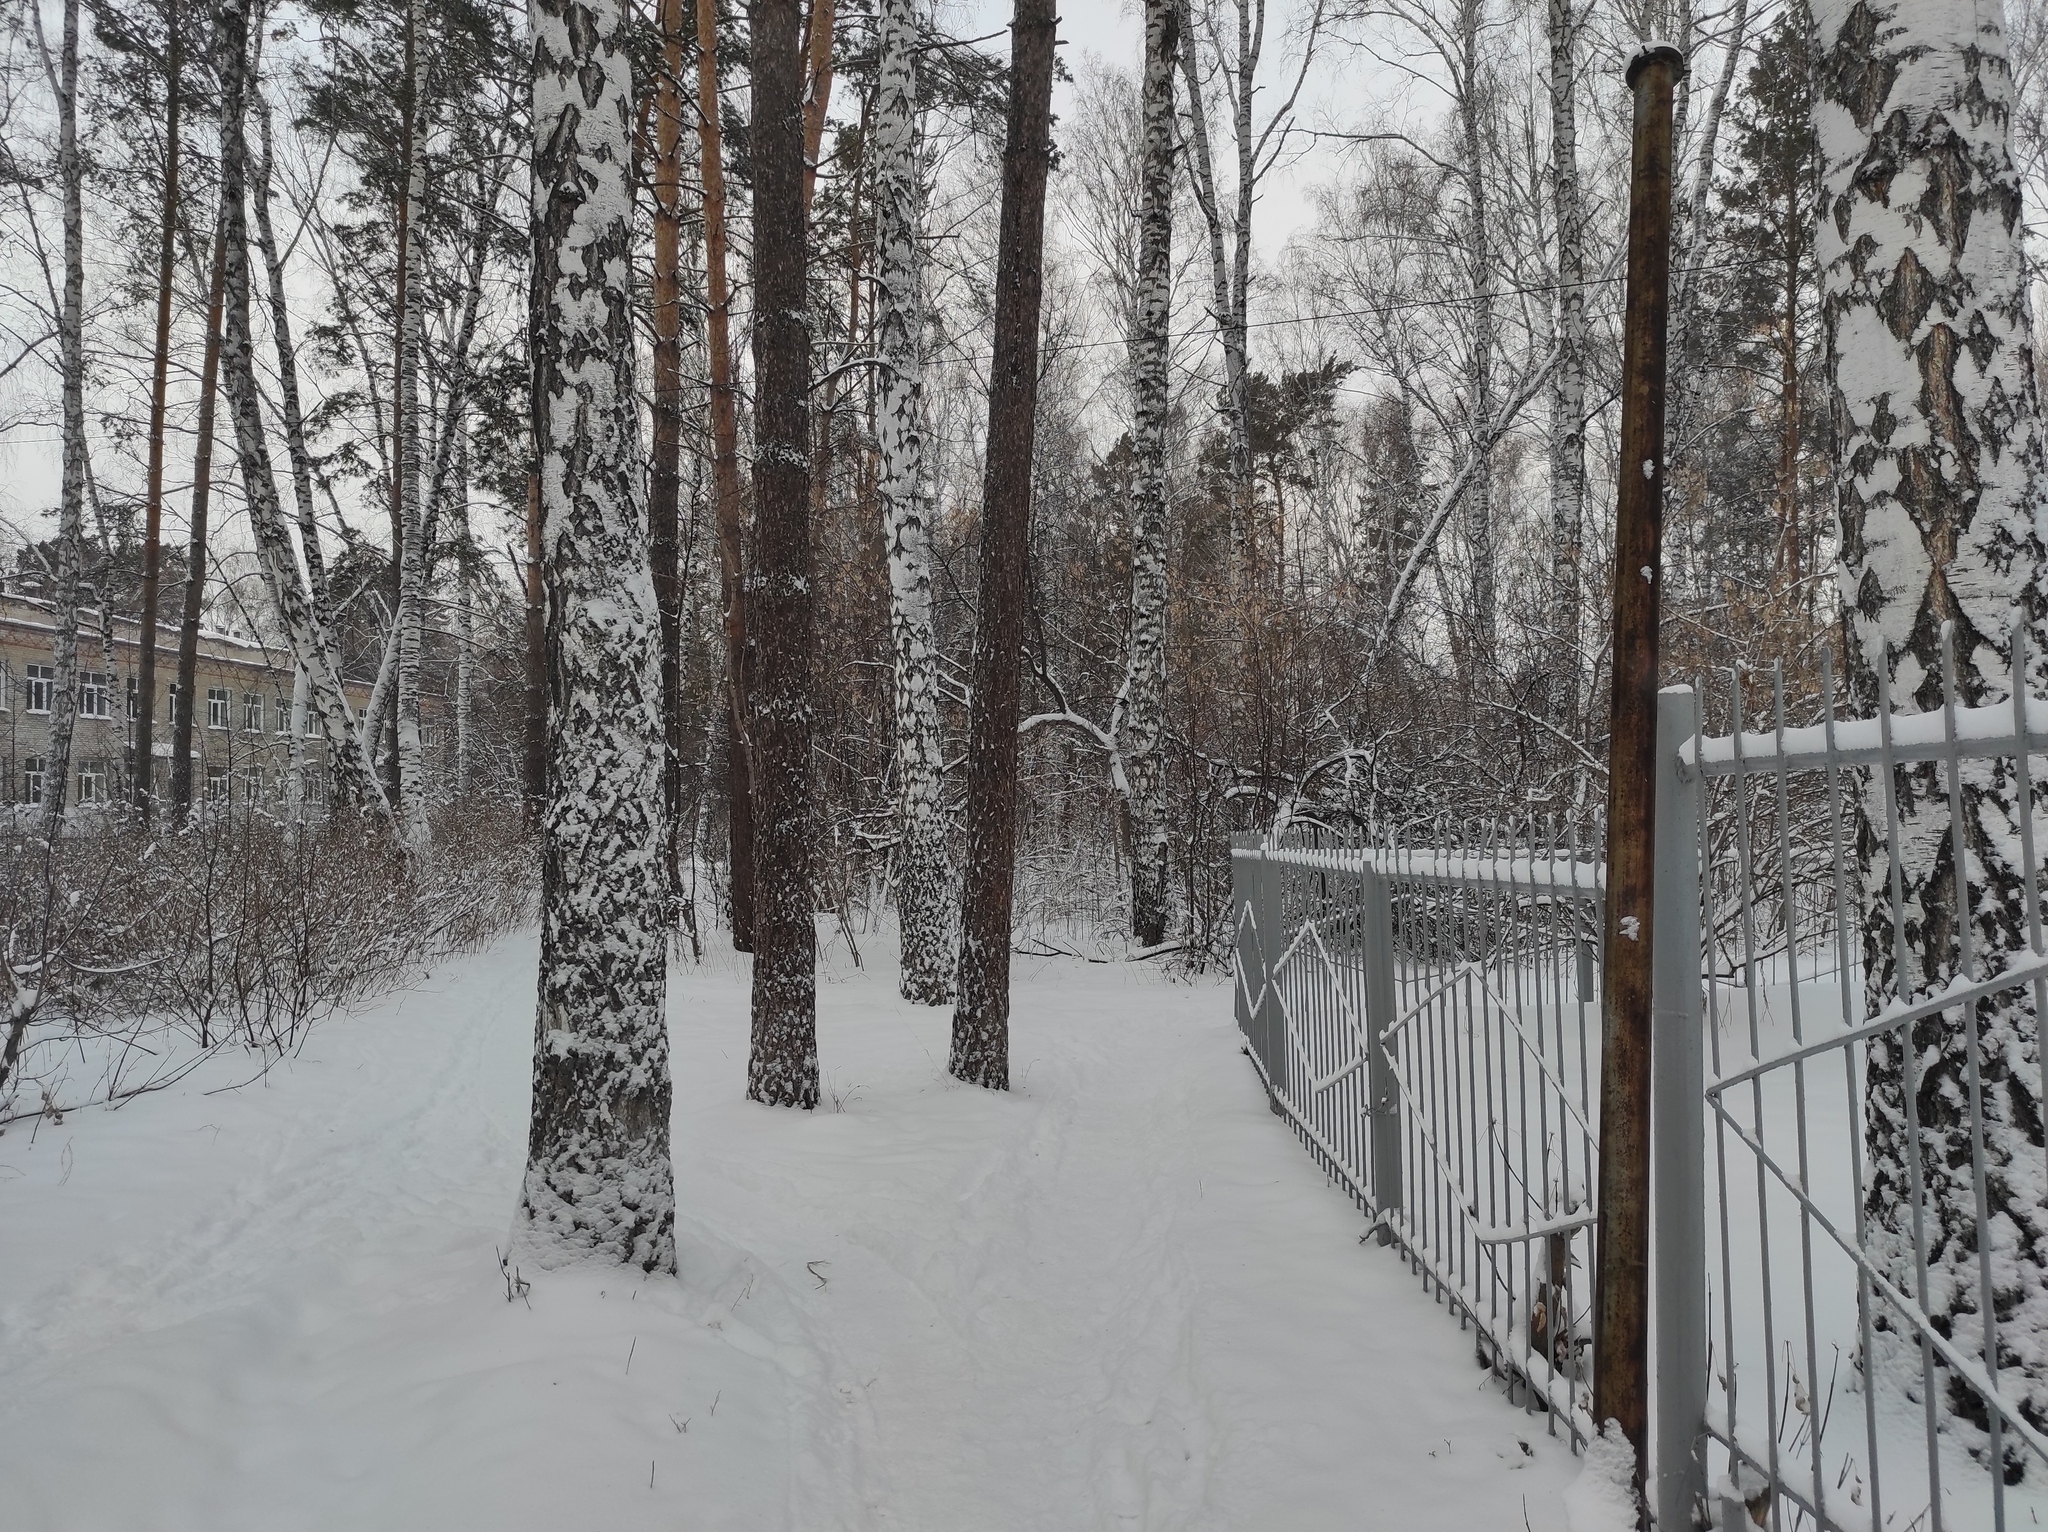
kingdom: Plantae
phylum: Tracheophyta
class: Magnoliopsida
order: Fagales
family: Betulaceae
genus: Betula
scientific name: Betula pendula
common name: Silver birch
